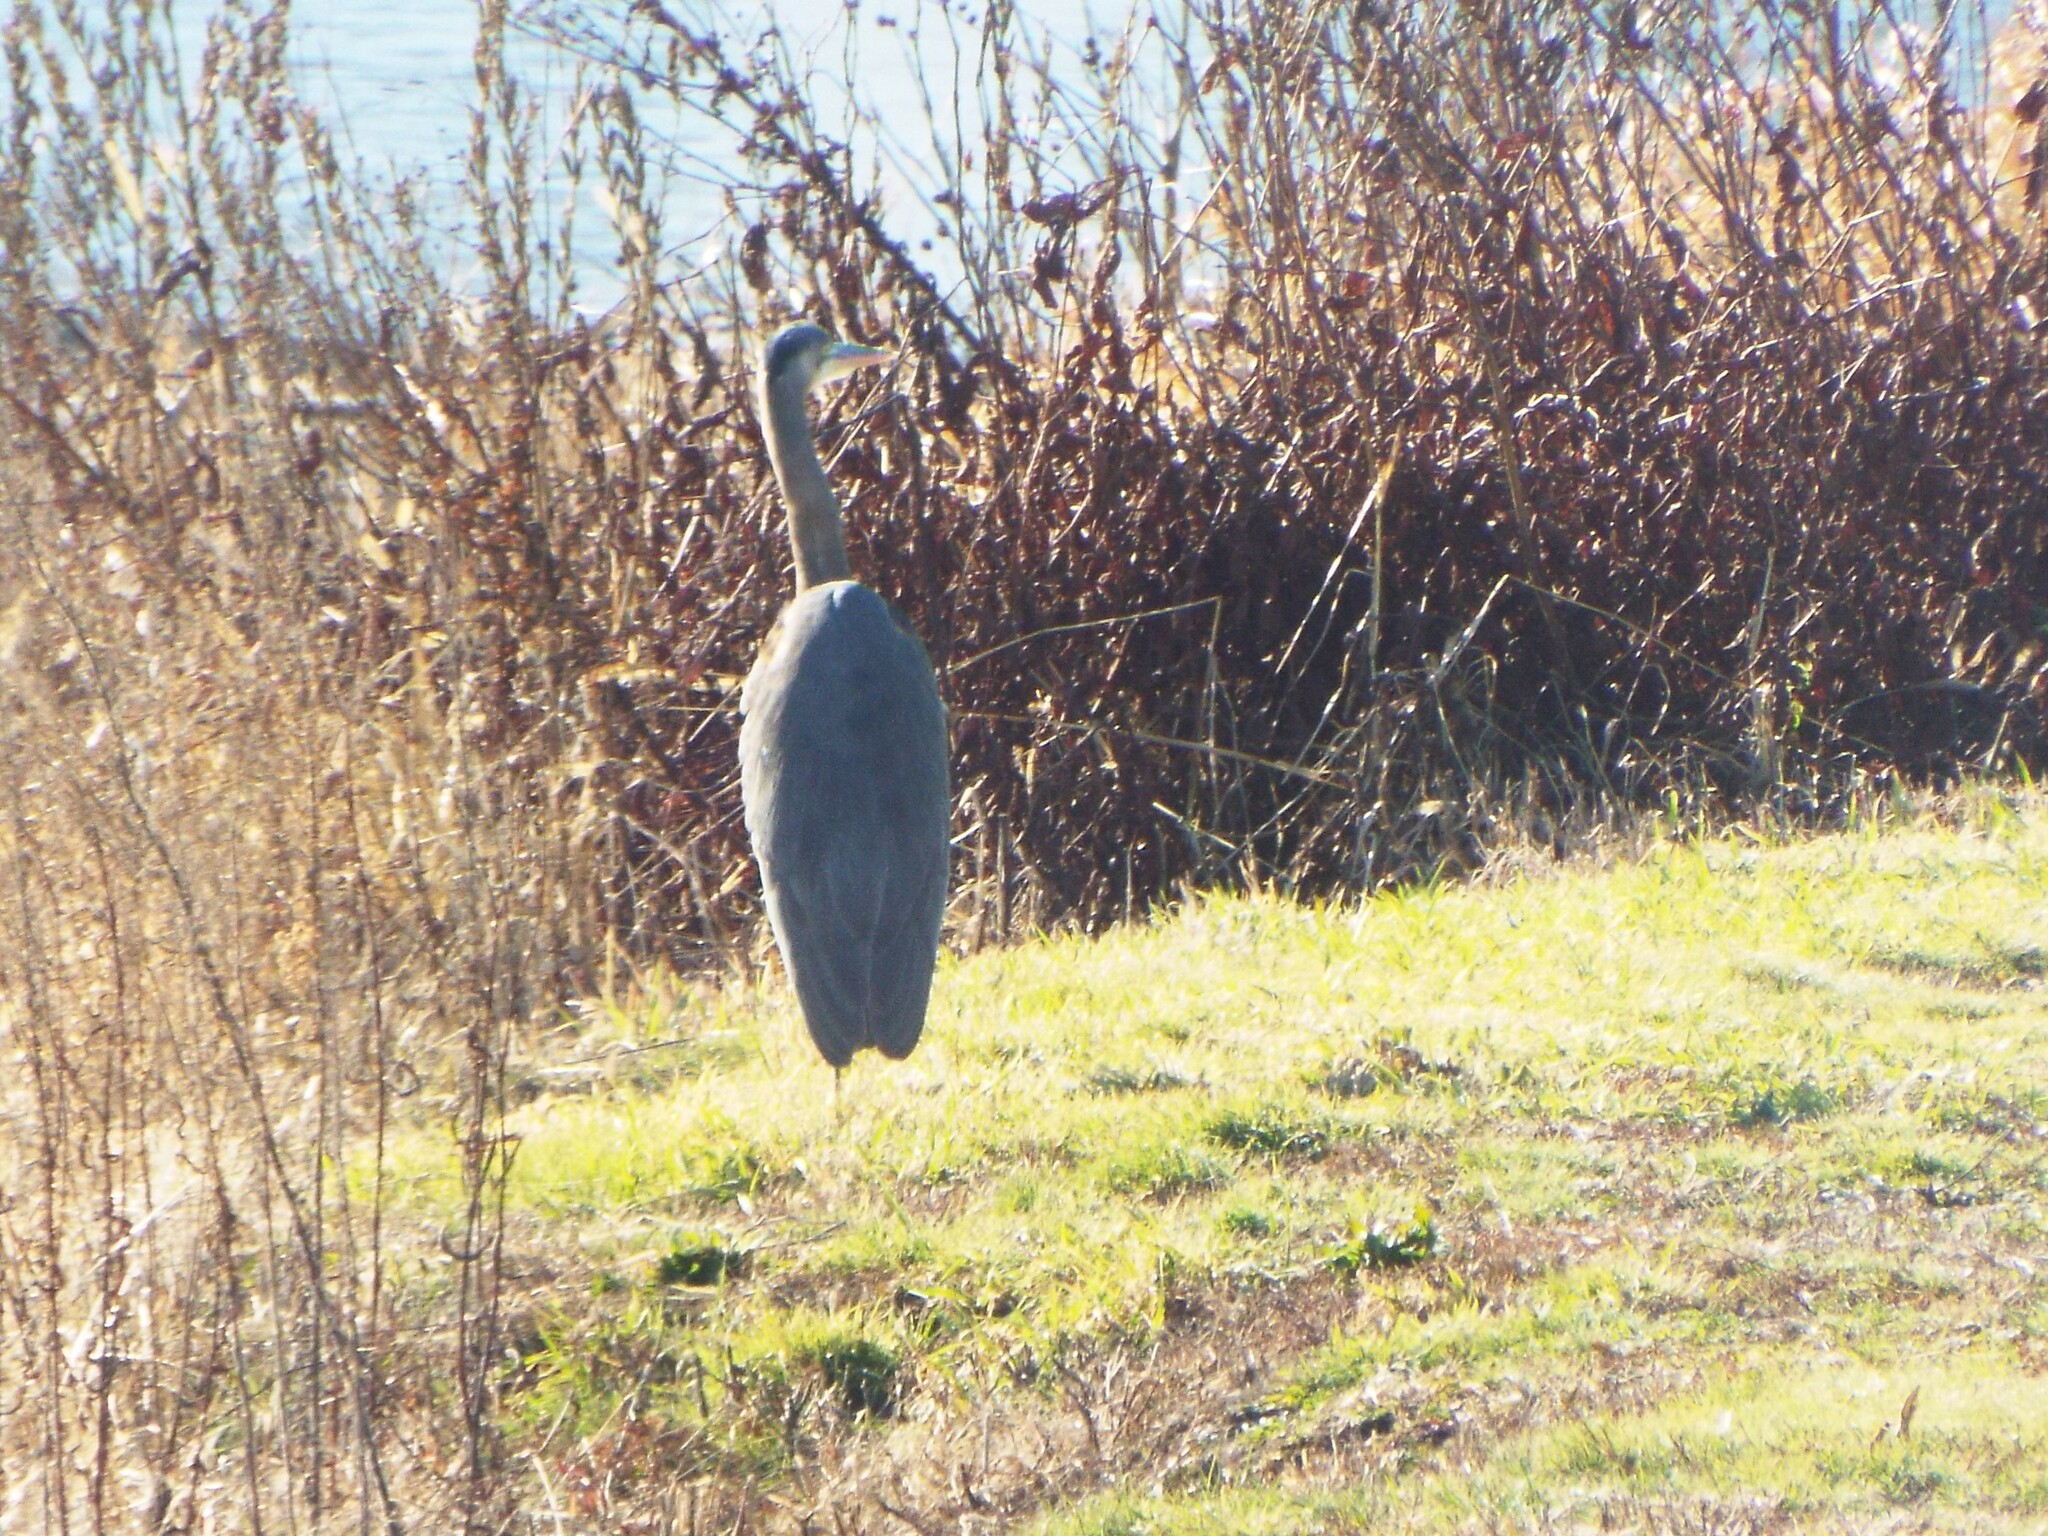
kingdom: Animalia
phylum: Chordata
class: Aves
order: Pelecaniformes
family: Ardeidae
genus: Ardea
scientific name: Ardea herodias
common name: Great blue heron
